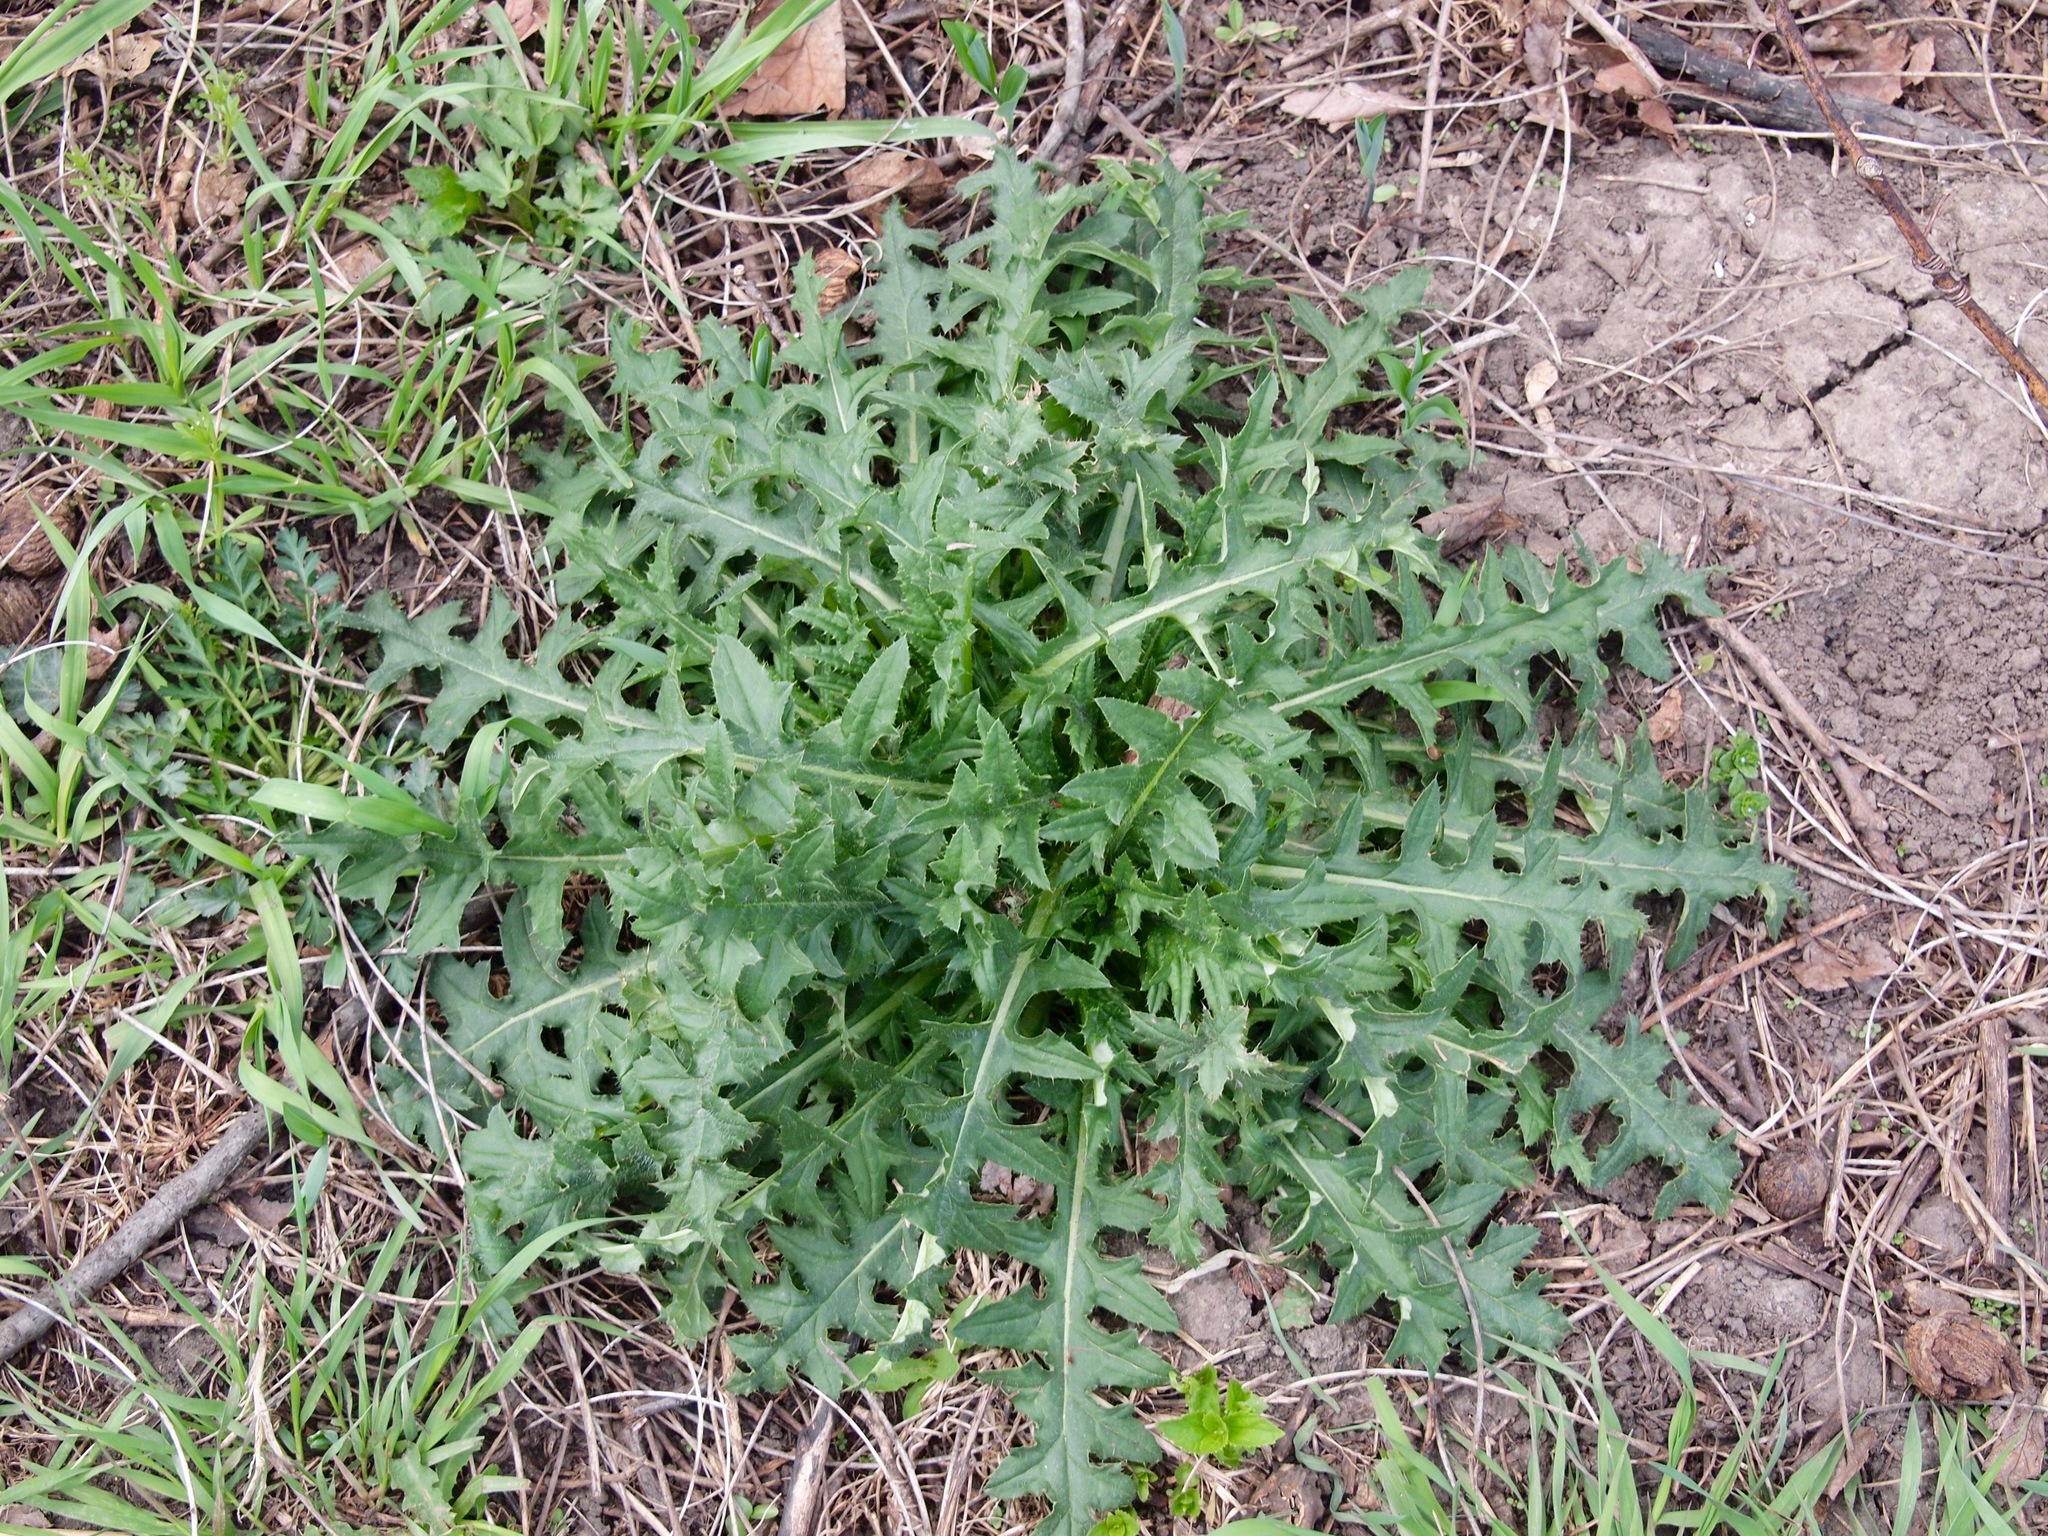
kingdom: Plantae
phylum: Tracheophyta
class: Magnoliopsida
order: Asterales
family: Asteraceae
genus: Cichorium
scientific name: Cichorium intybus
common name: Chicory
